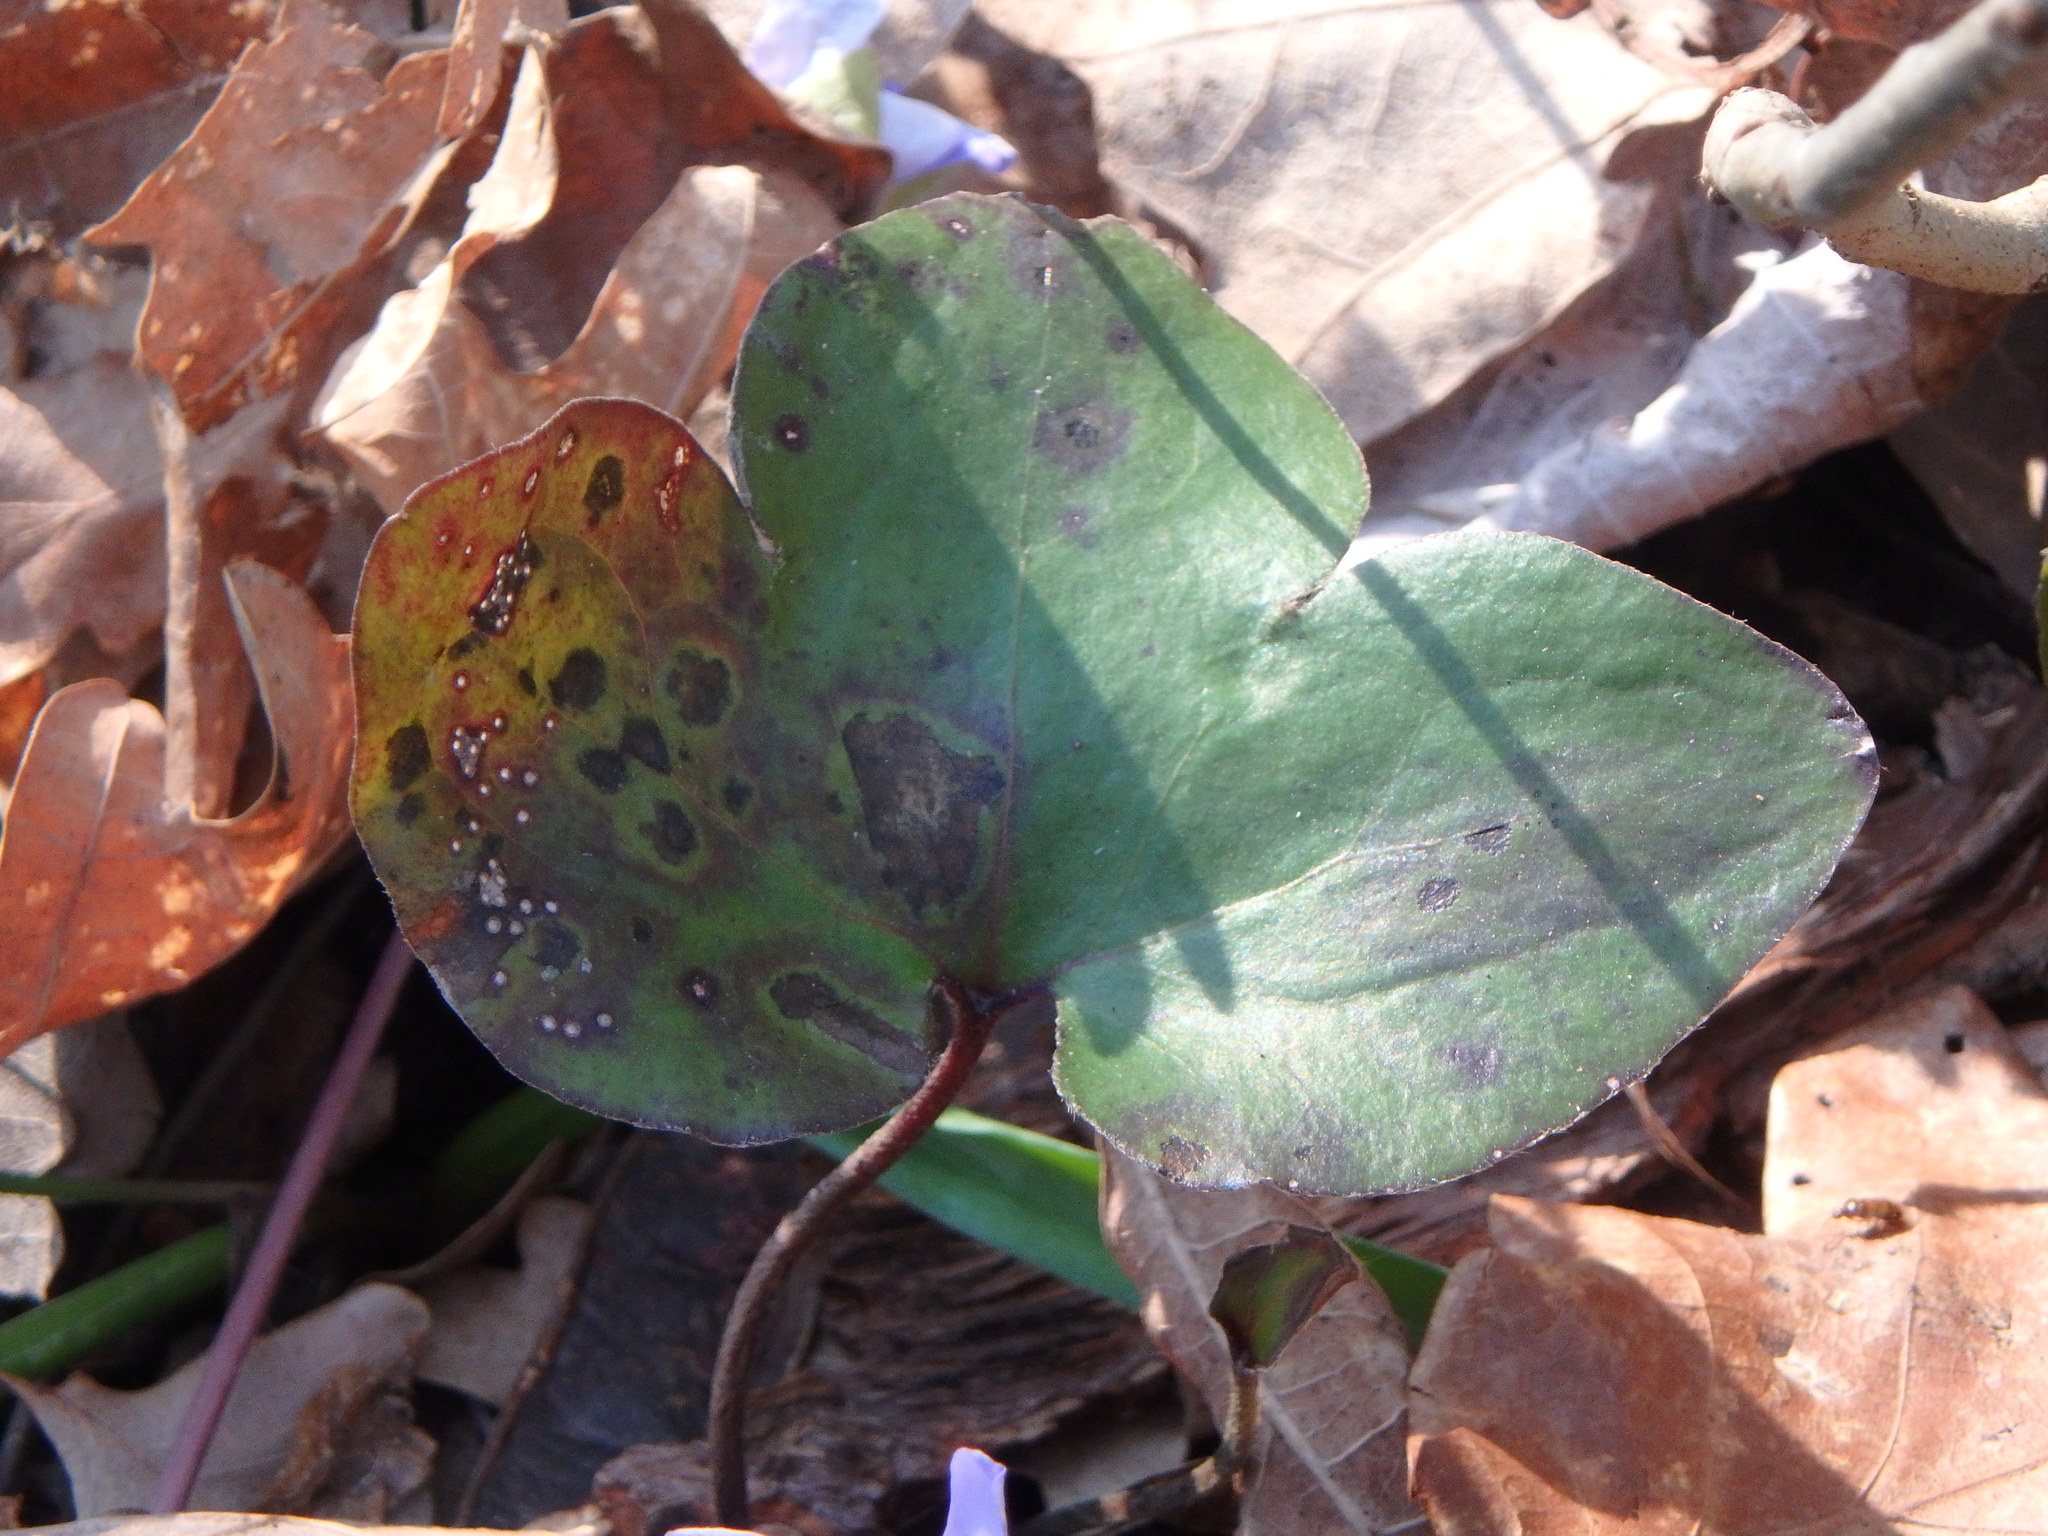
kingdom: Plantae
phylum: Tracheophyta
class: Magnoliopsida
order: Ranunculales
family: Ranunculaceae
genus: Hepatica
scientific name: Hepatica nobilis
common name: Liverleaf
